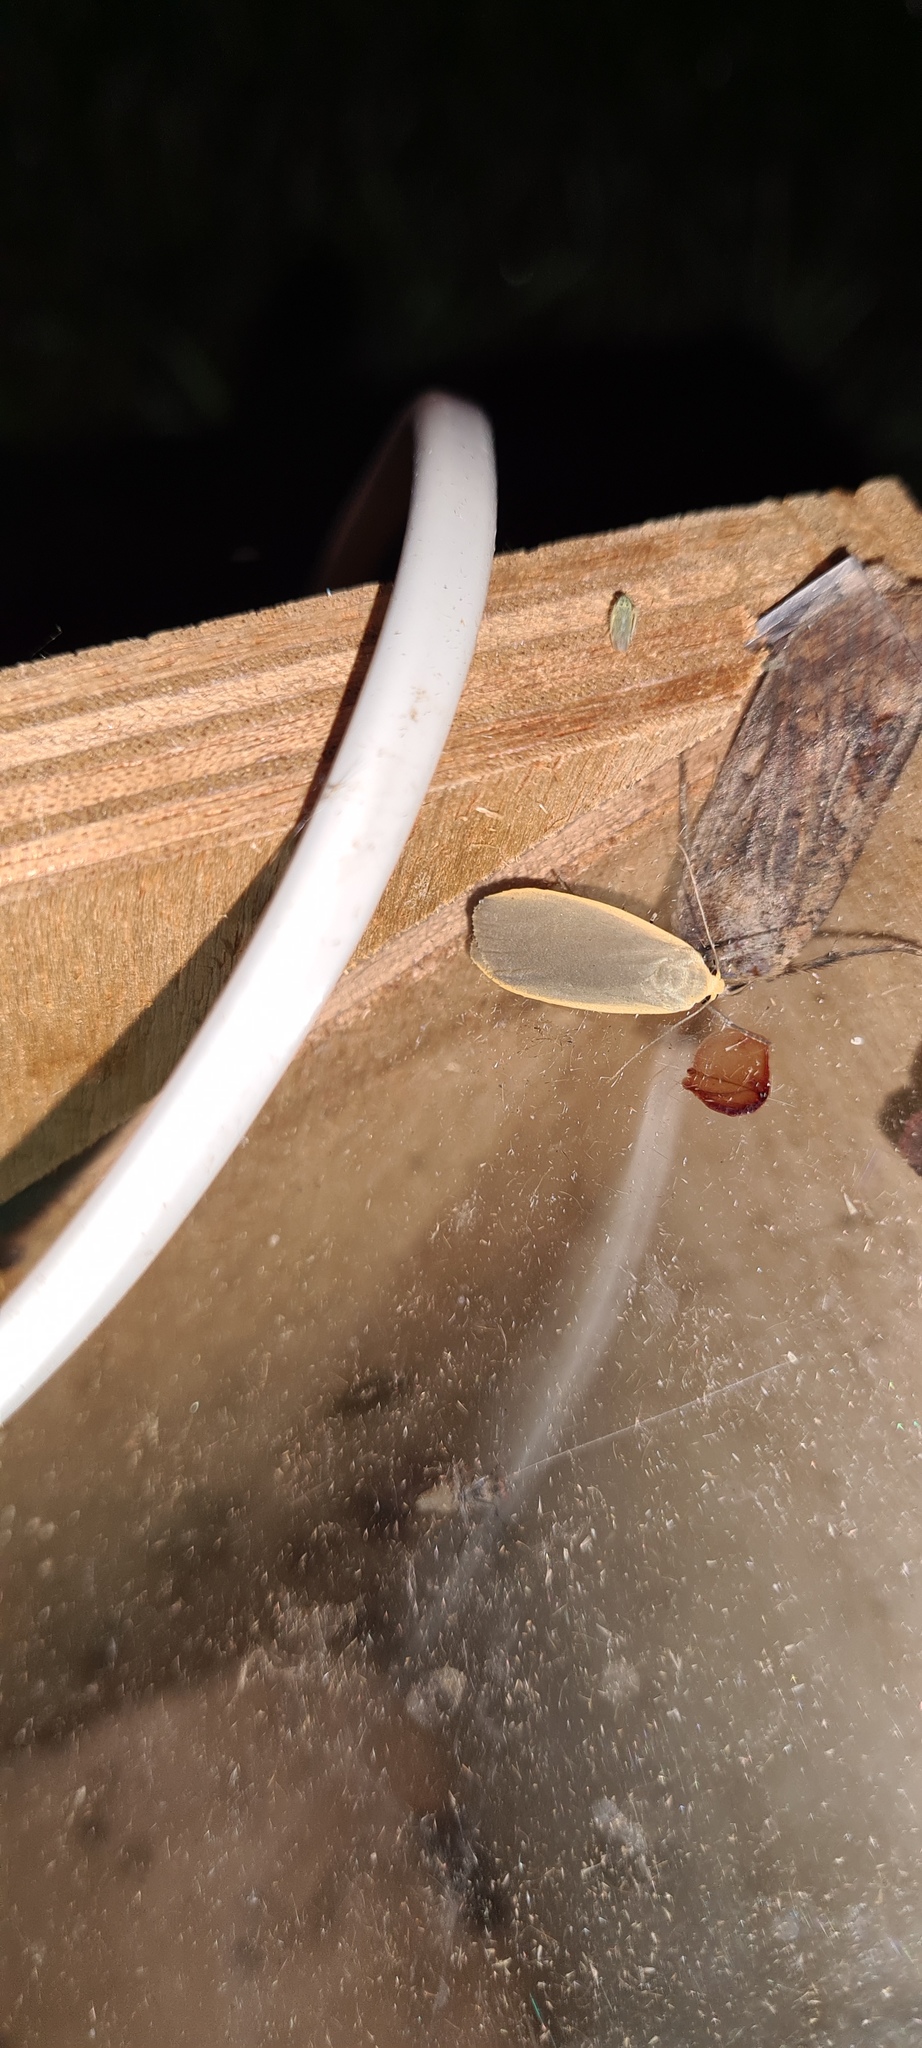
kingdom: Animalia
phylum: Arthropoda
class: Insecta
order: Lepidoptera
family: Erebidae
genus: Collita
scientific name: Collita griseola
